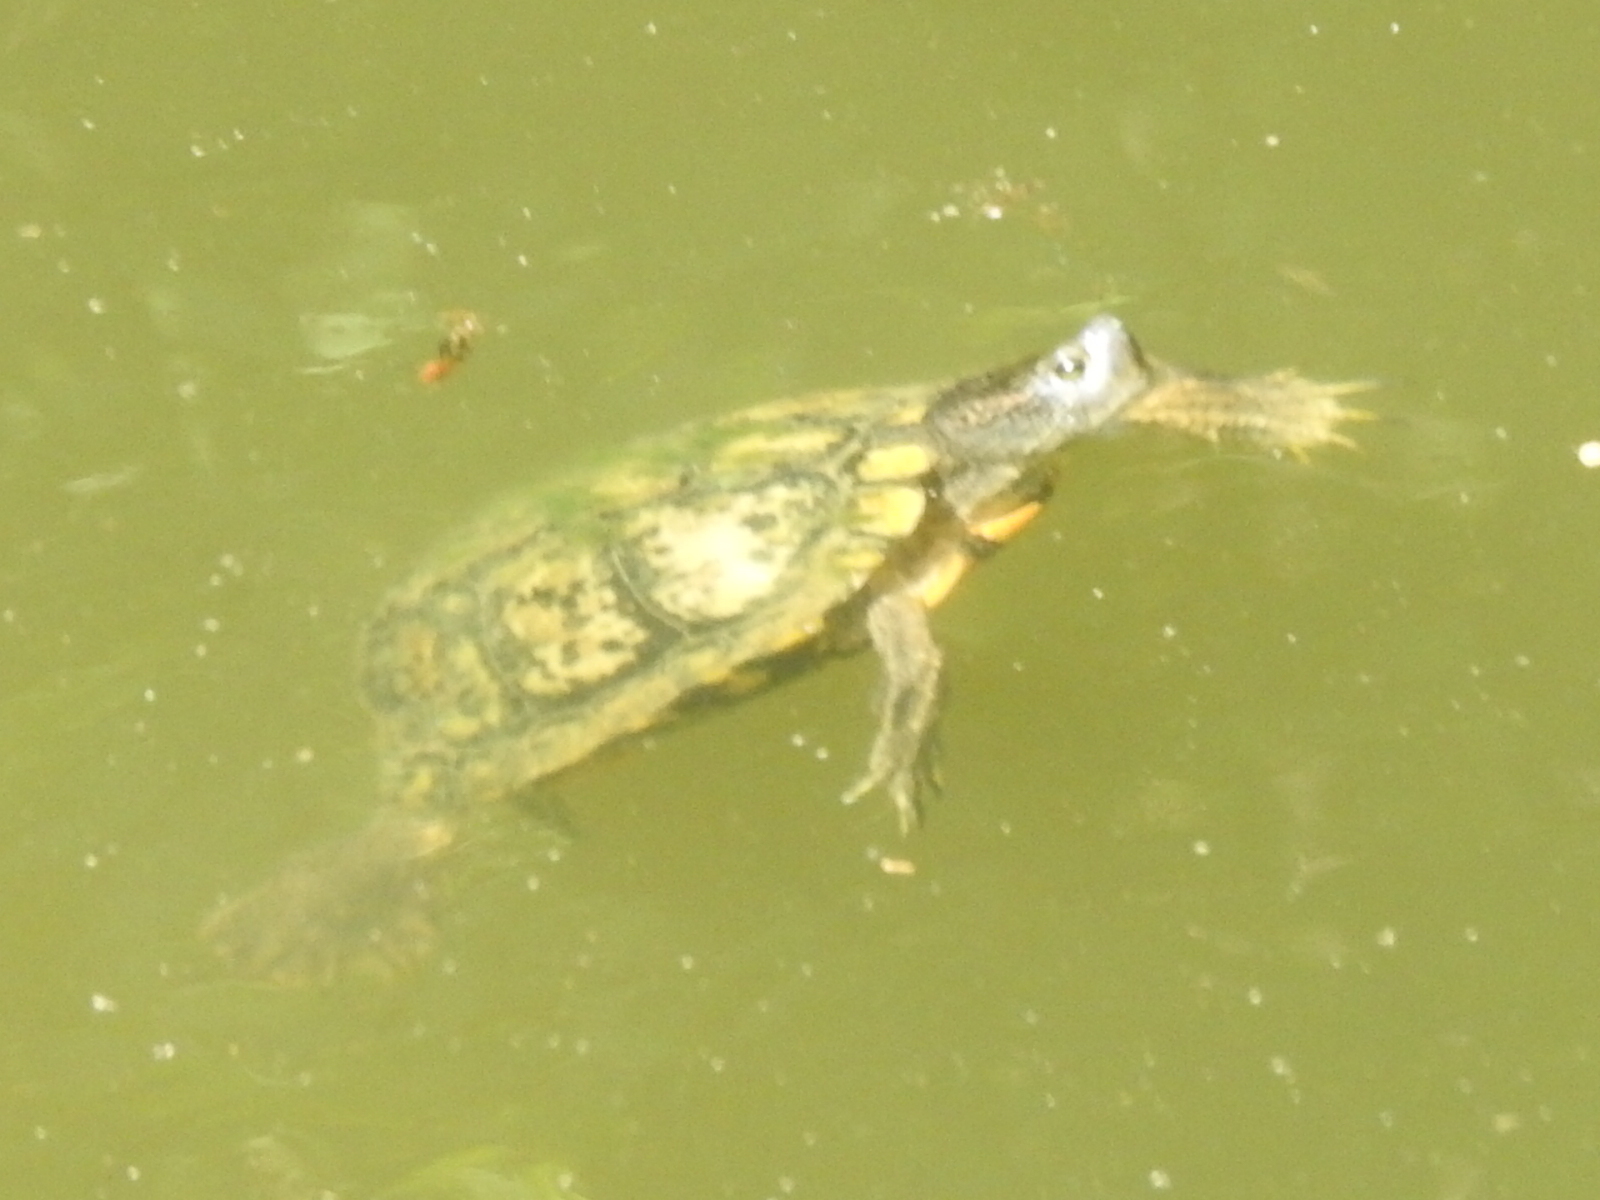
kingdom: Animalia
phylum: Chordata
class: Testudines
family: Emydidae
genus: Trachemys
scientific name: Trachemys scripta
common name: Slider
